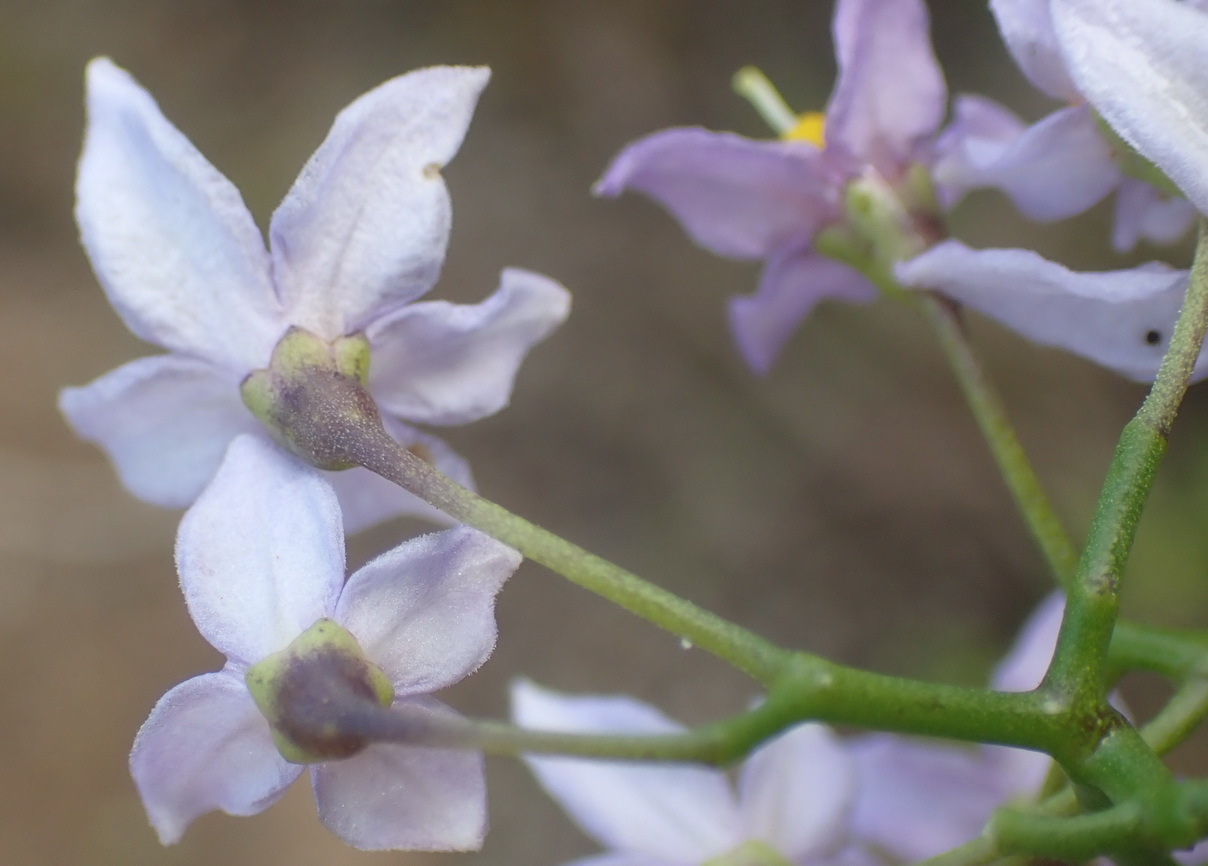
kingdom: Plantae
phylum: Tracheophyta
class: Magnoliopsida
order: Solanales
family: Solanaceae
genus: Solanum
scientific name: Solanum africanum
